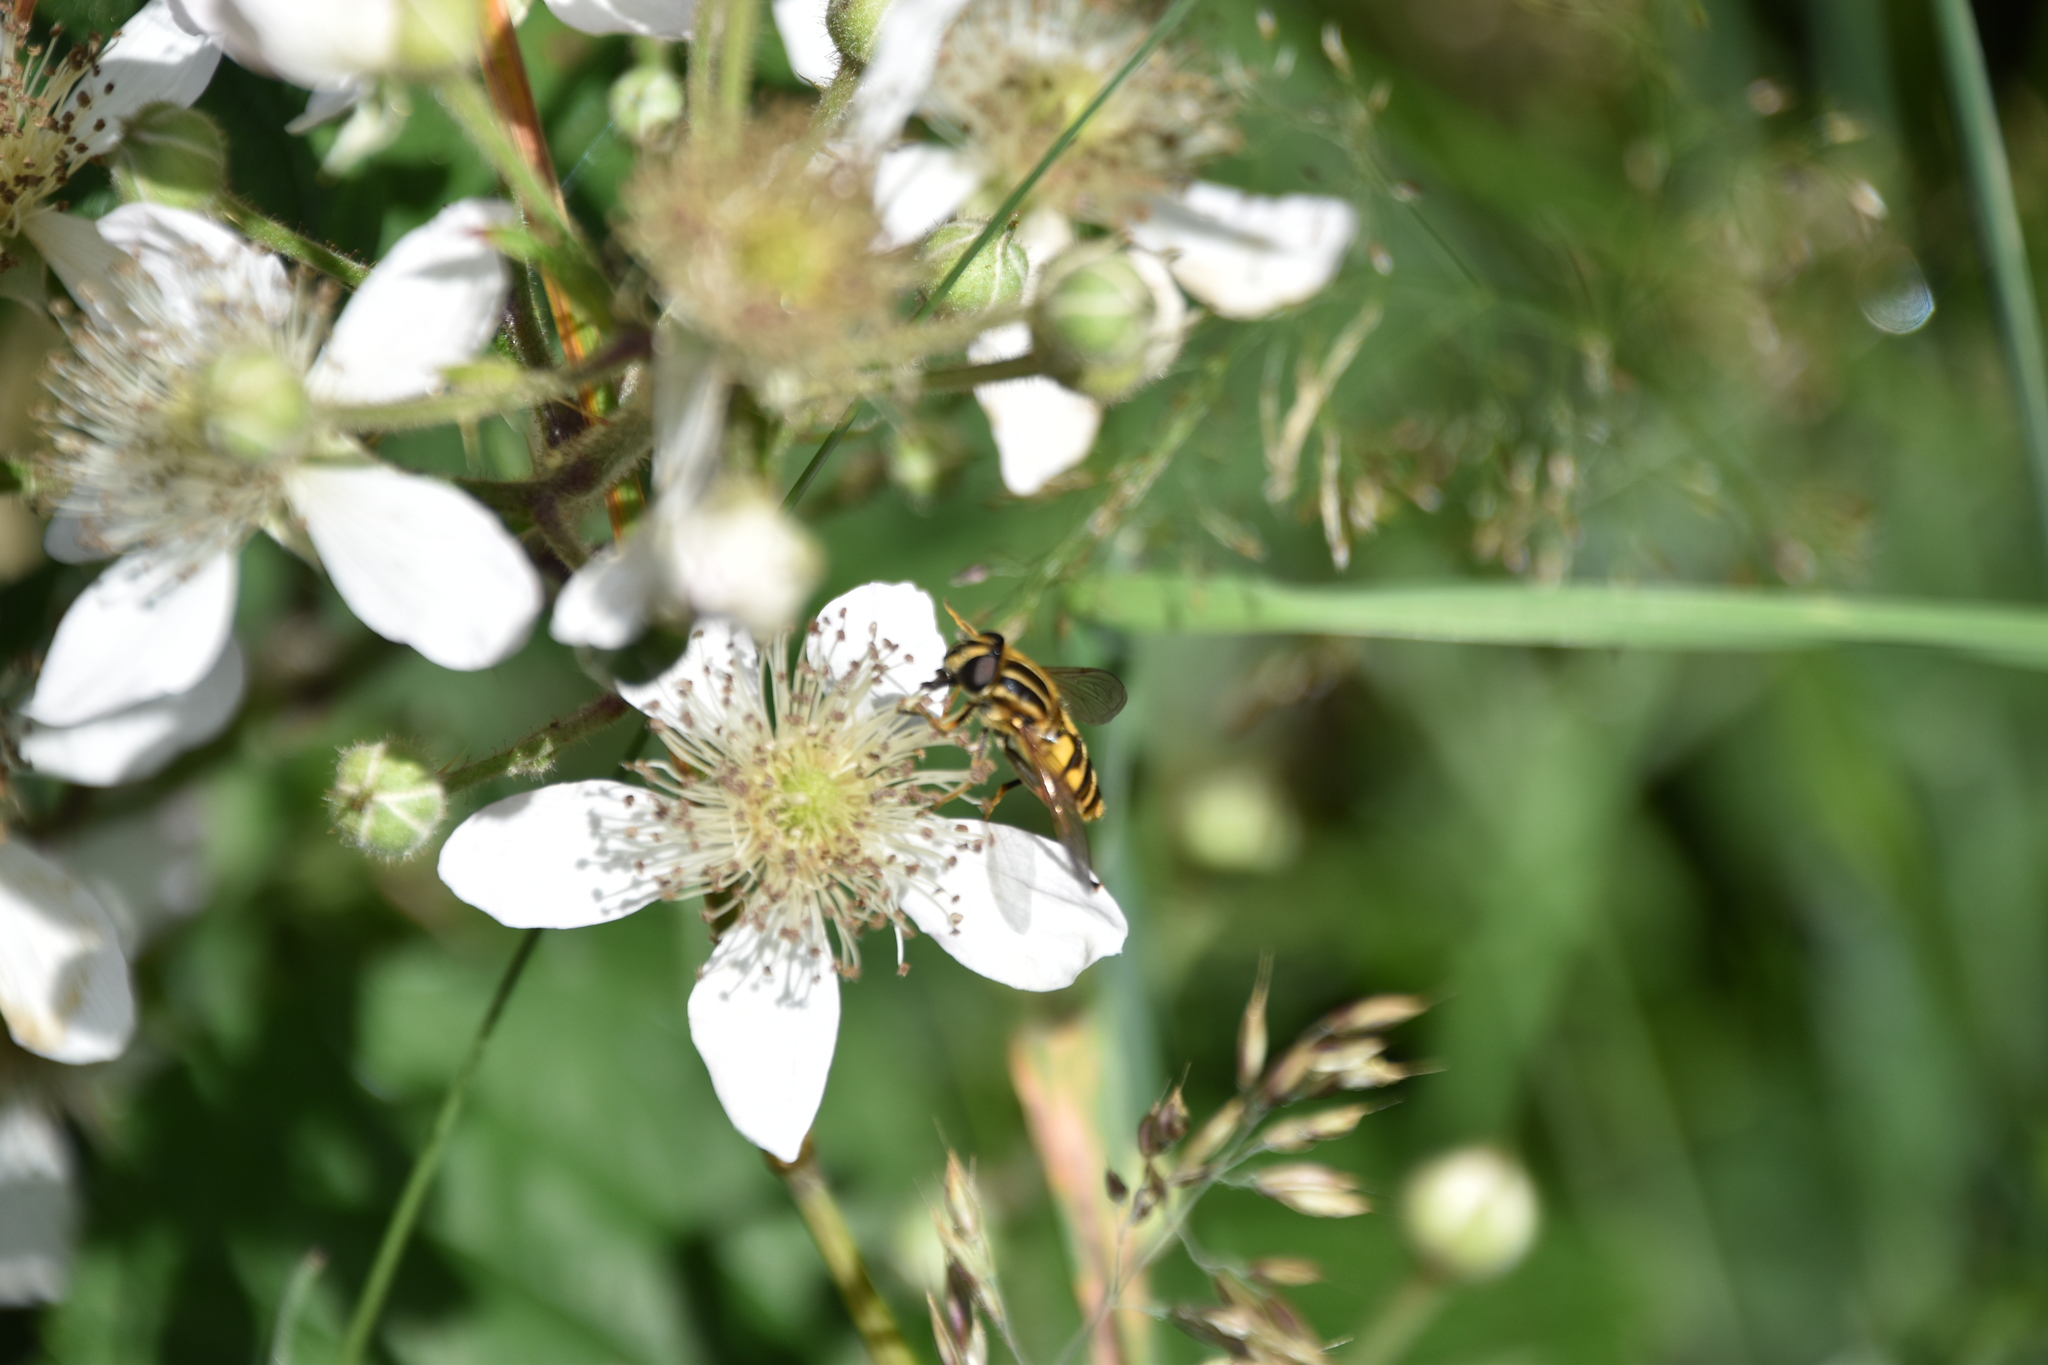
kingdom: Animalia
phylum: Arthropoda
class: Insecta
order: Diptera
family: Syrphidae
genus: Helophilus
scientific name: Helophilus pendulus
